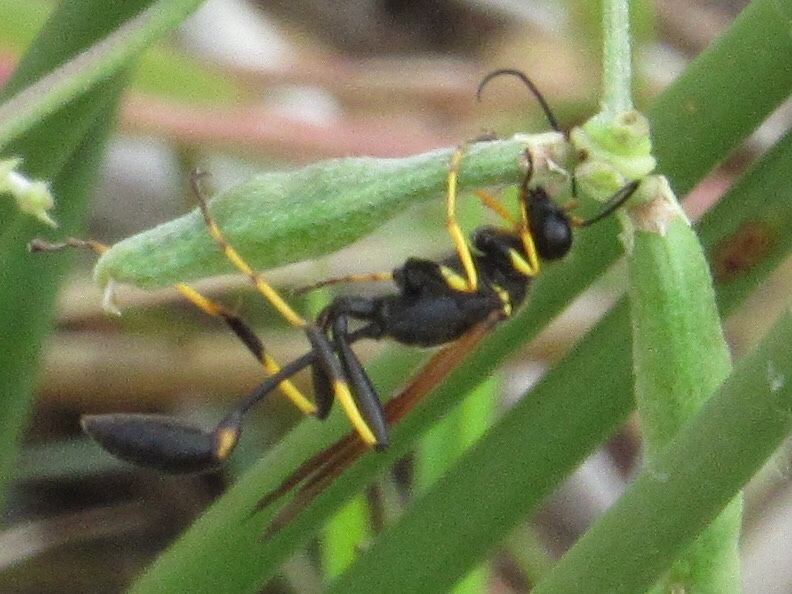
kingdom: Animalia
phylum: Arthropoda
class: Insecta
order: Hymenoptera
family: Sphecidae
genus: Sceliphron
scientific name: Sceliphron caementarium
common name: Mud dauber
